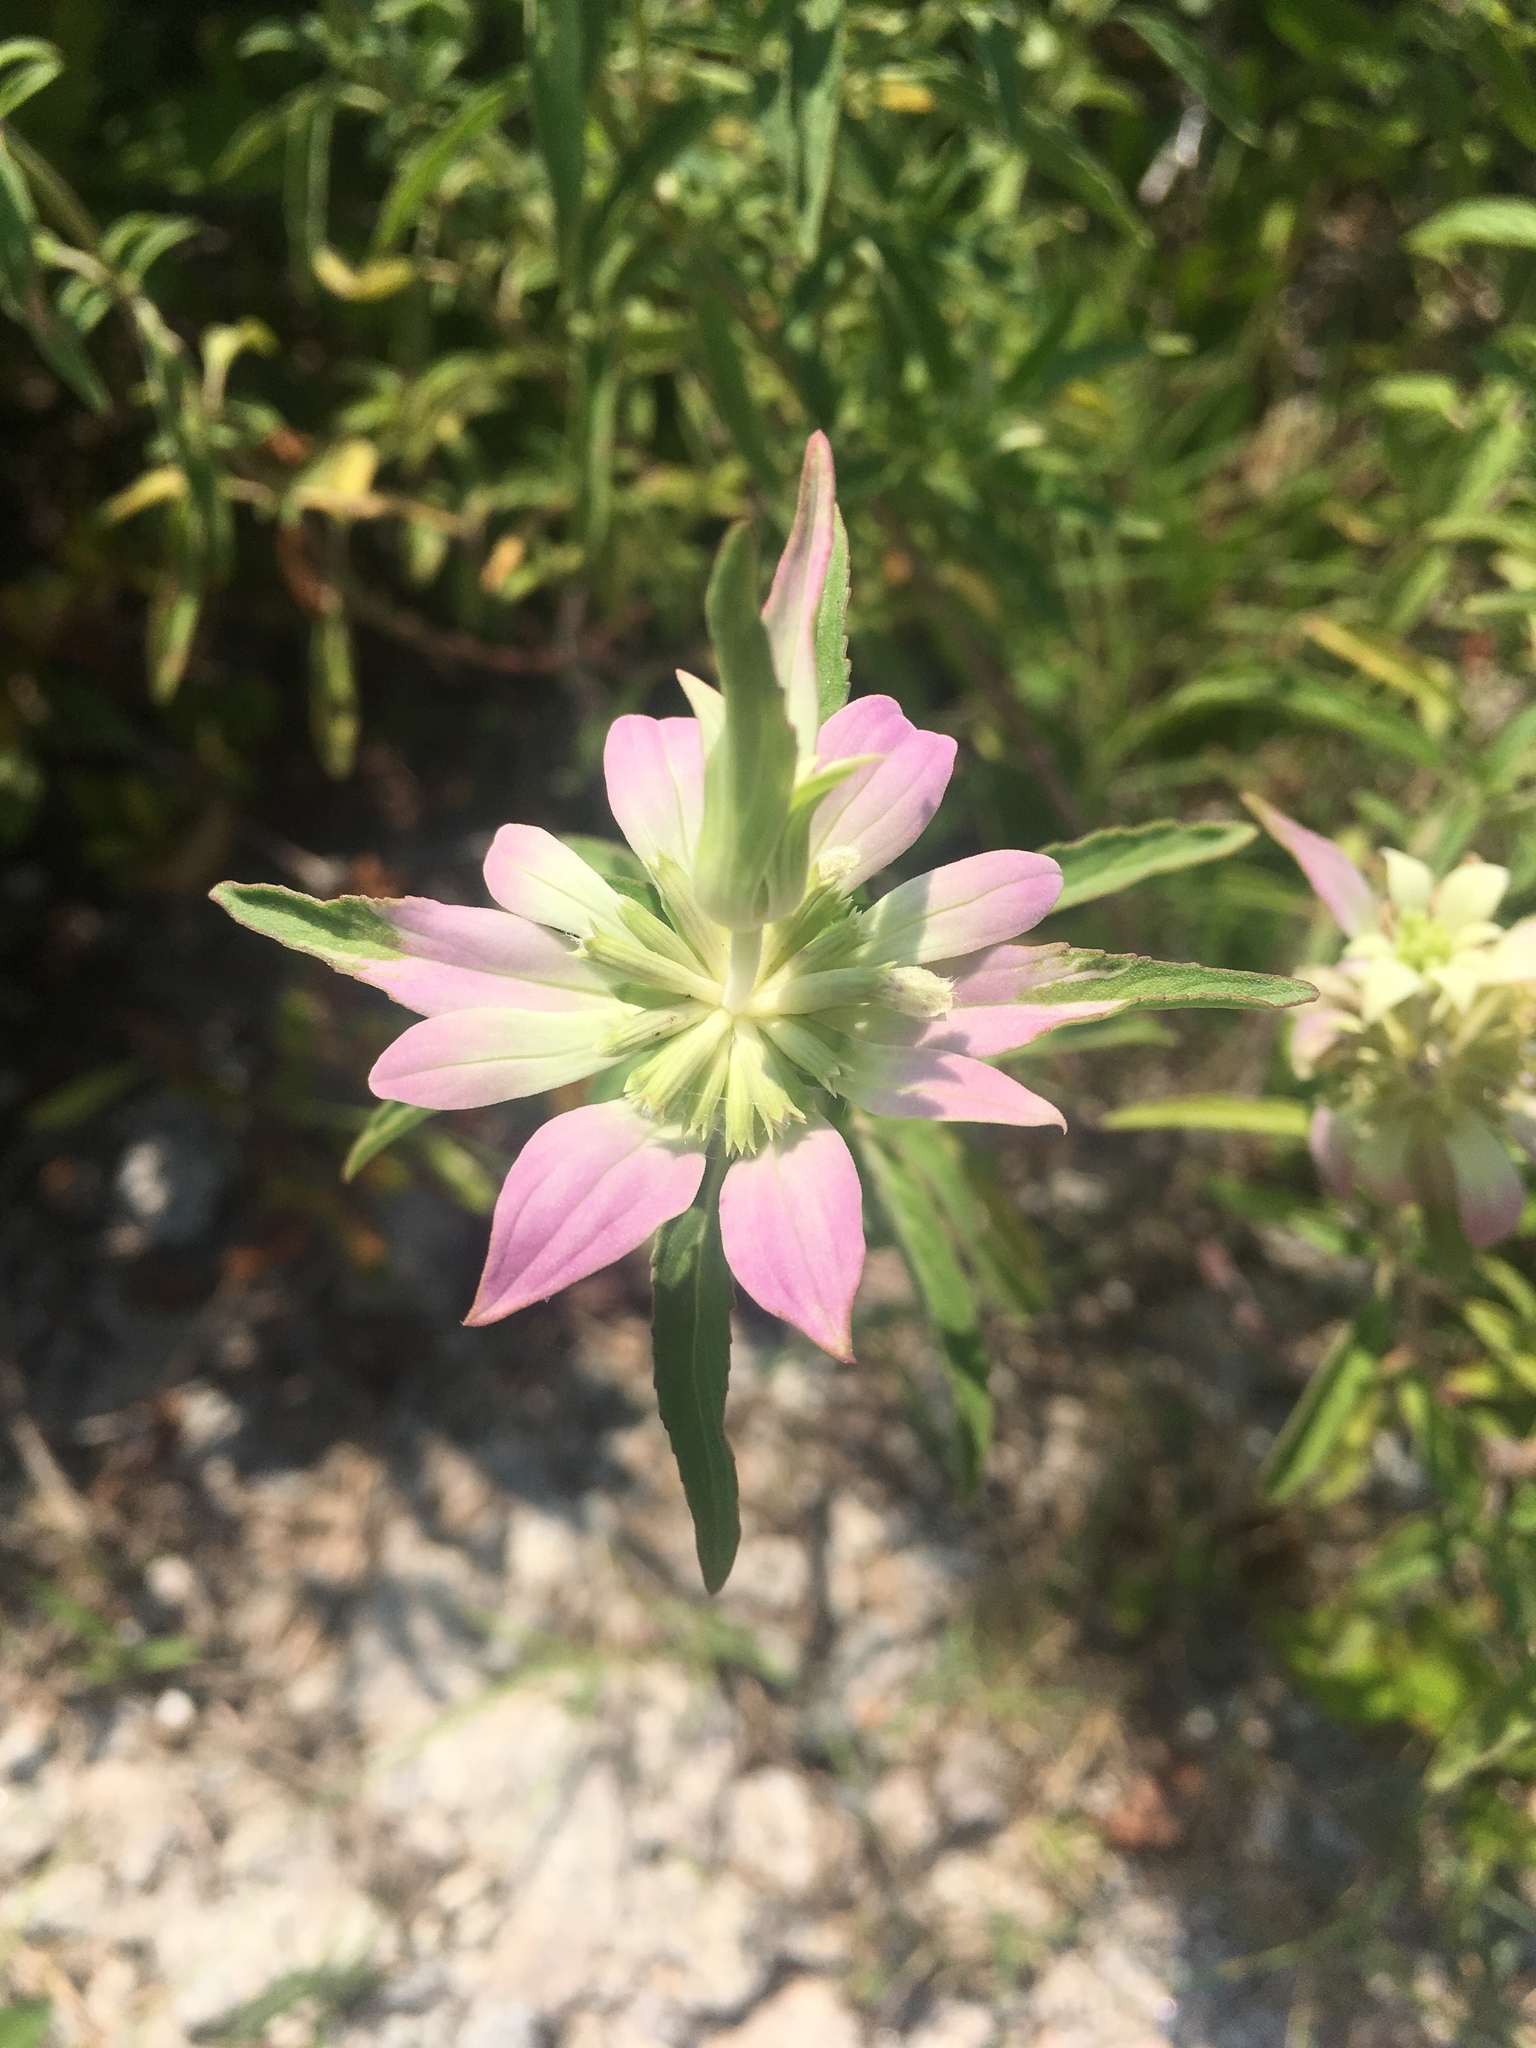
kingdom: Plantae
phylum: Tracheophyta
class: Magnoliopsida
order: Lamiales
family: Lamiaceae
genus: Monarda
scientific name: Monarda punctata
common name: Dotted monarda
